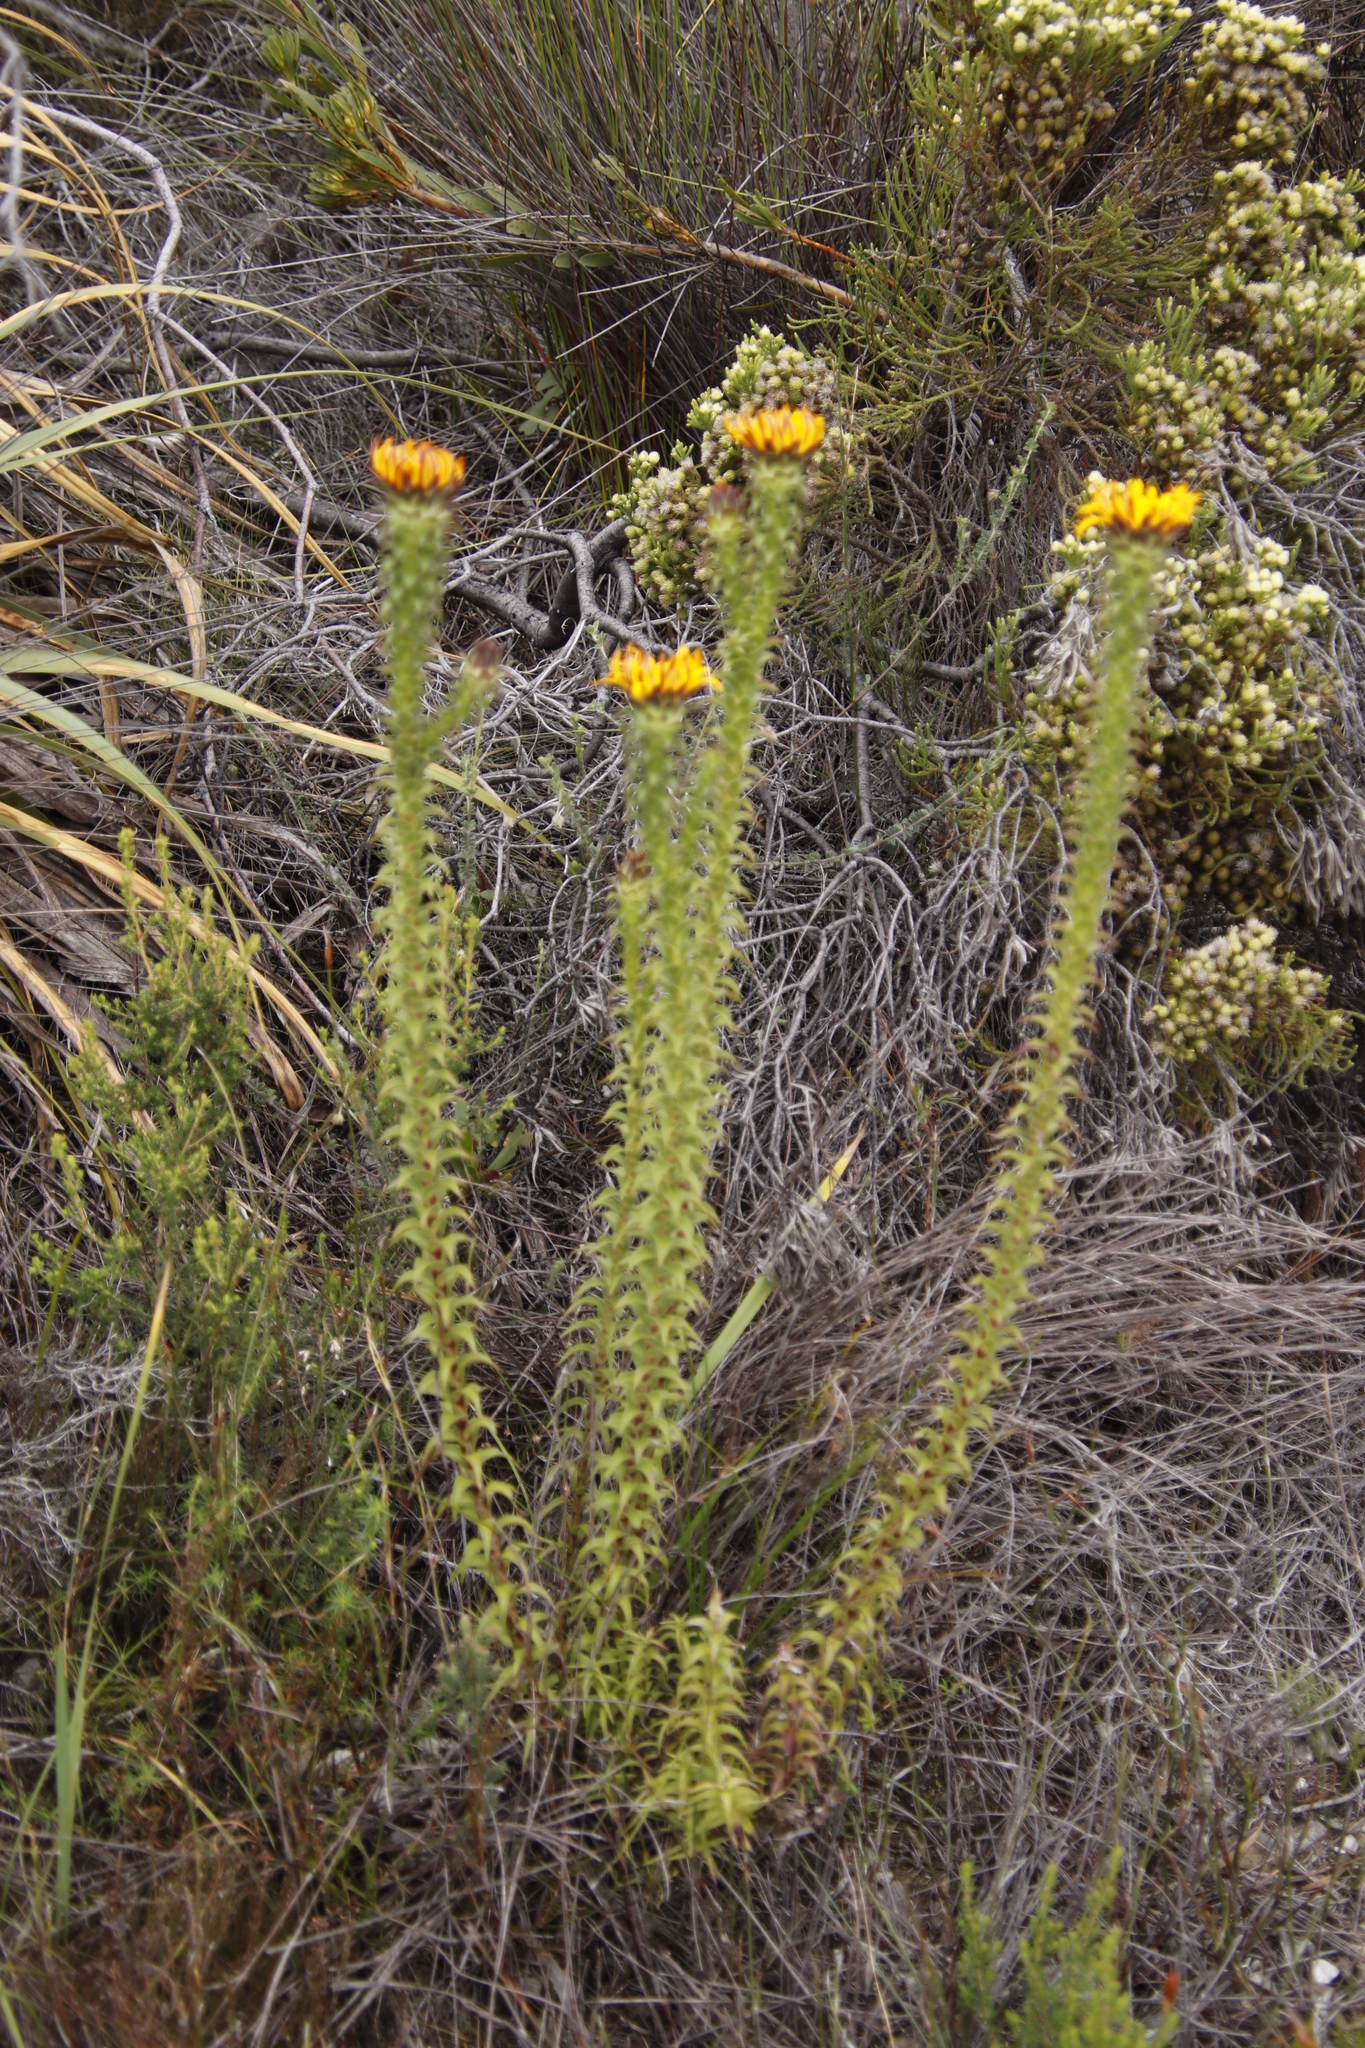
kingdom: Plantae
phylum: Tracheophyta
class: Magnoliopsida
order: Asterales
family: Asteraceae
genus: Oedera
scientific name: Oedera imbricata
